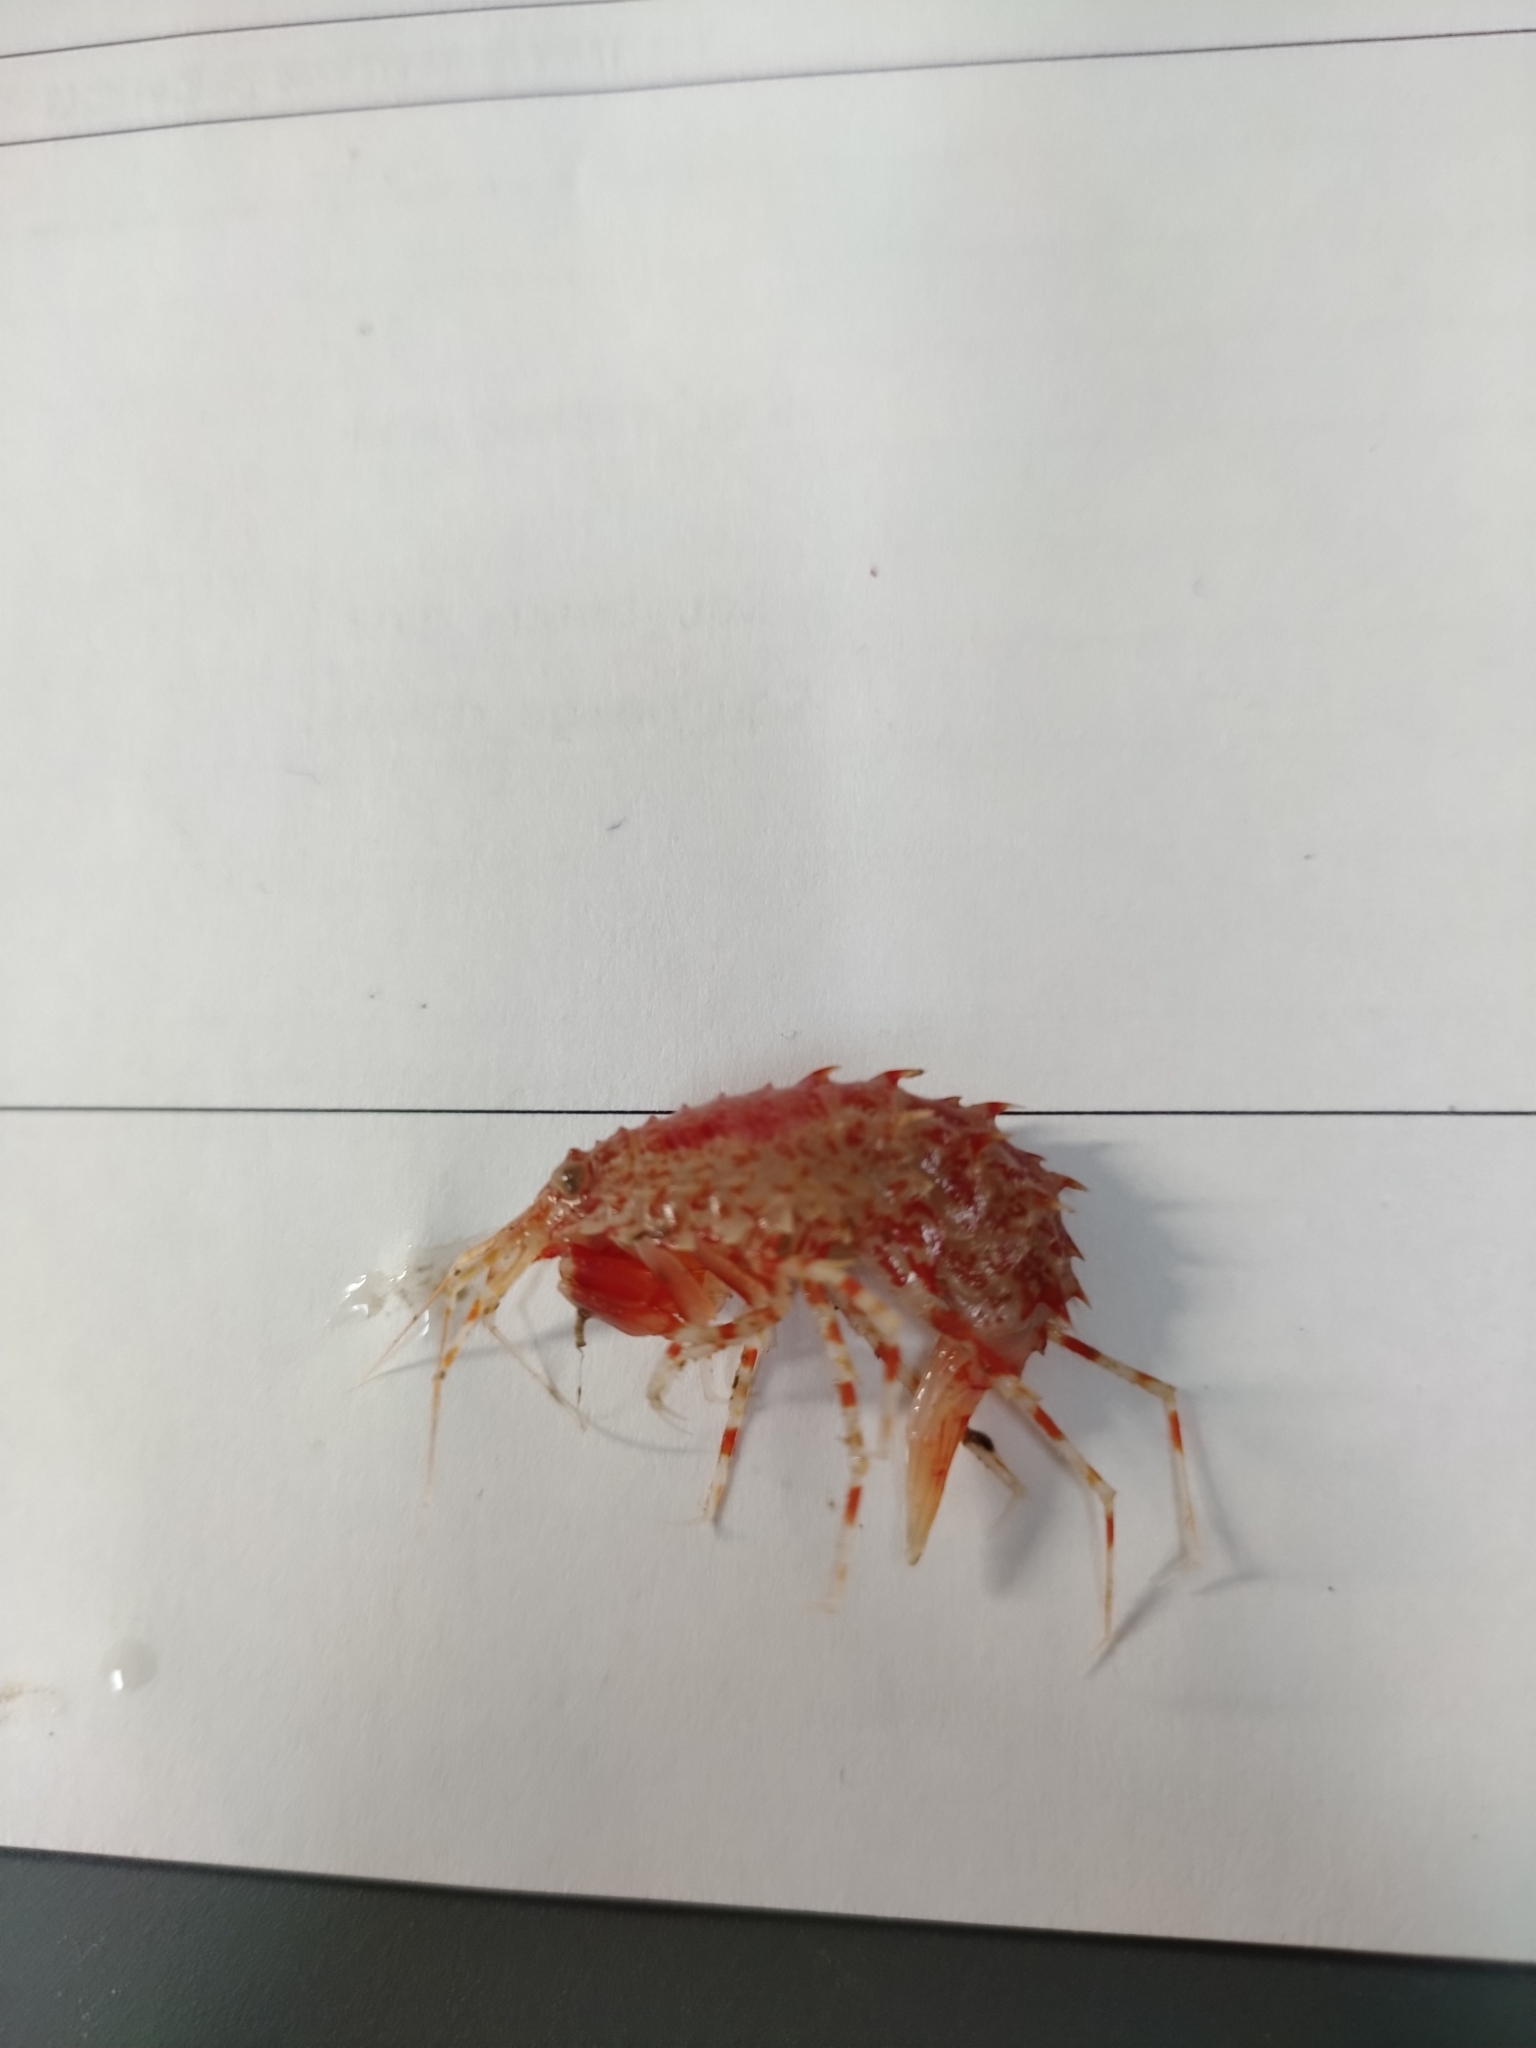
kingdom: Animalia
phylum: Arthropoda
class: Malacostraca
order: Amphipoda
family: Eusiridae
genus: Rhachotropis
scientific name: Rhachotropis aculeata
